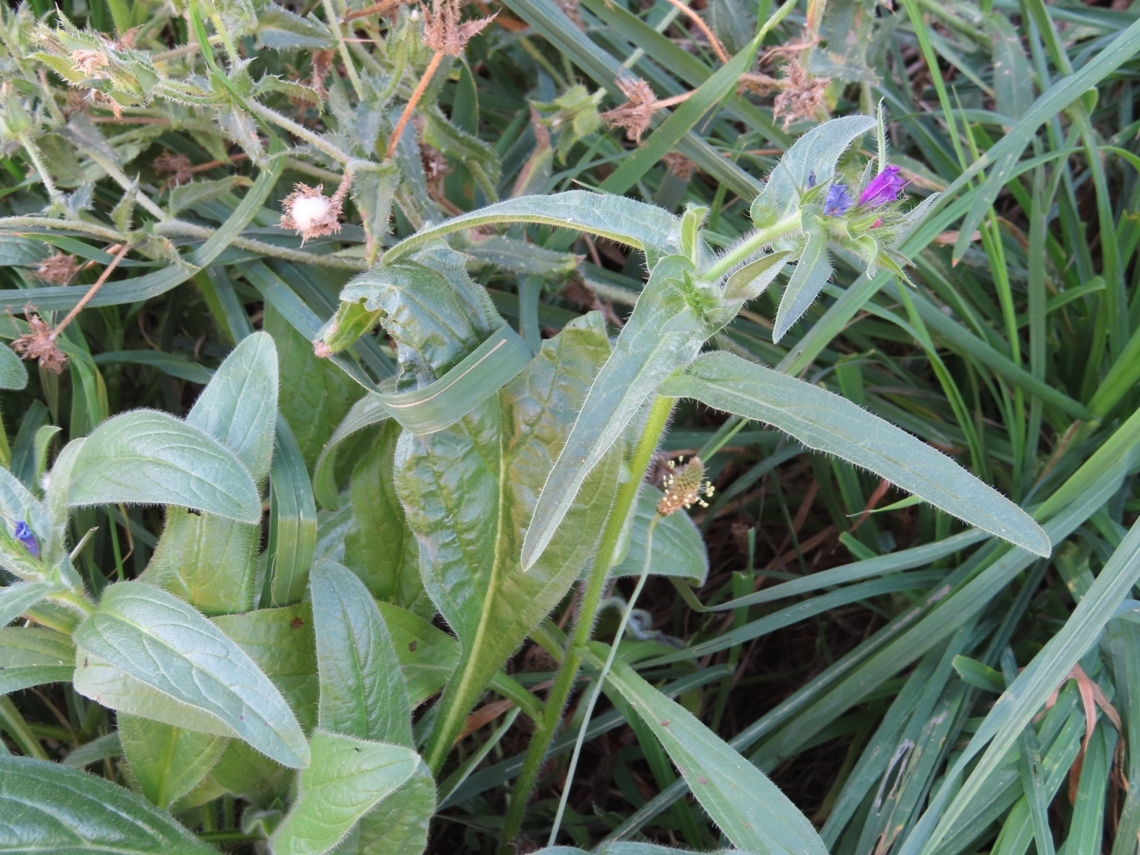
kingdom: Plantae
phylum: Tracheophyta
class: Magnoliopsida
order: Boraginales
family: Boraginaceae
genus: Echium
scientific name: Echium plantagineum
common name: Purple viper's-bugloss
